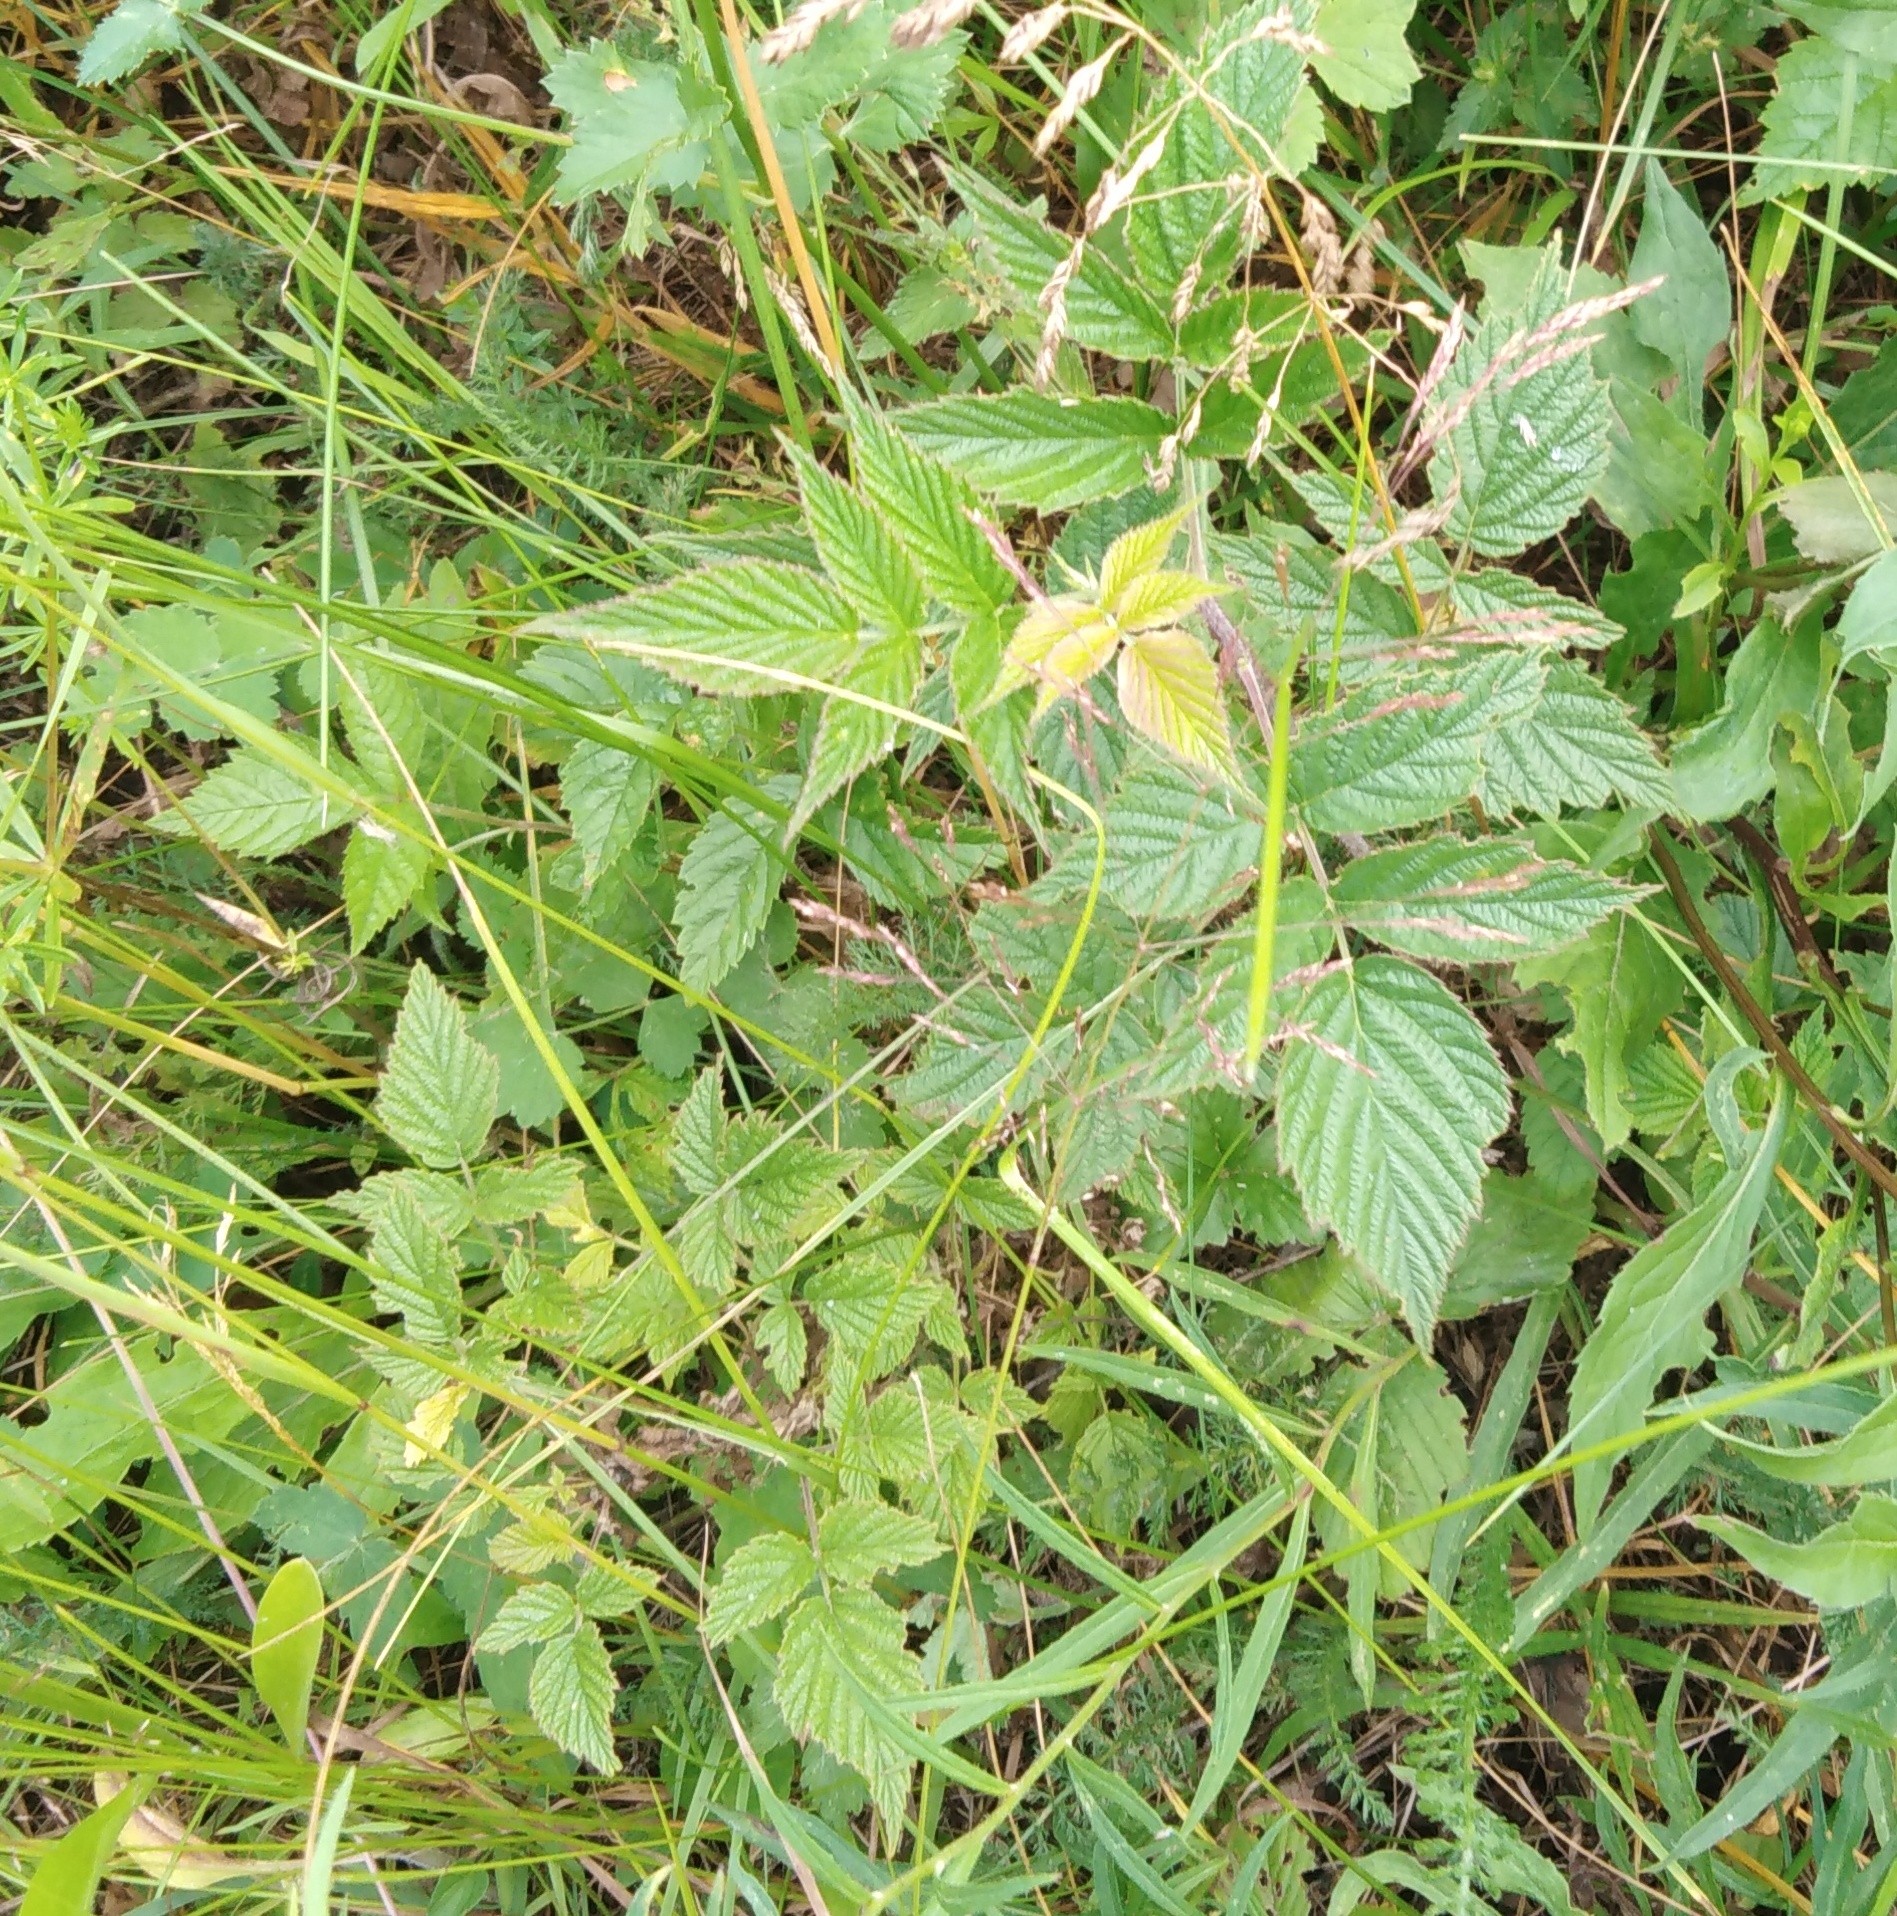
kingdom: Plantae
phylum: Tracheophyta
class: Magnoliopsida
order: Rosales
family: Rosaceae
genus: Rubus
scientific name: Rubus idaeus
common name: Raspberry
